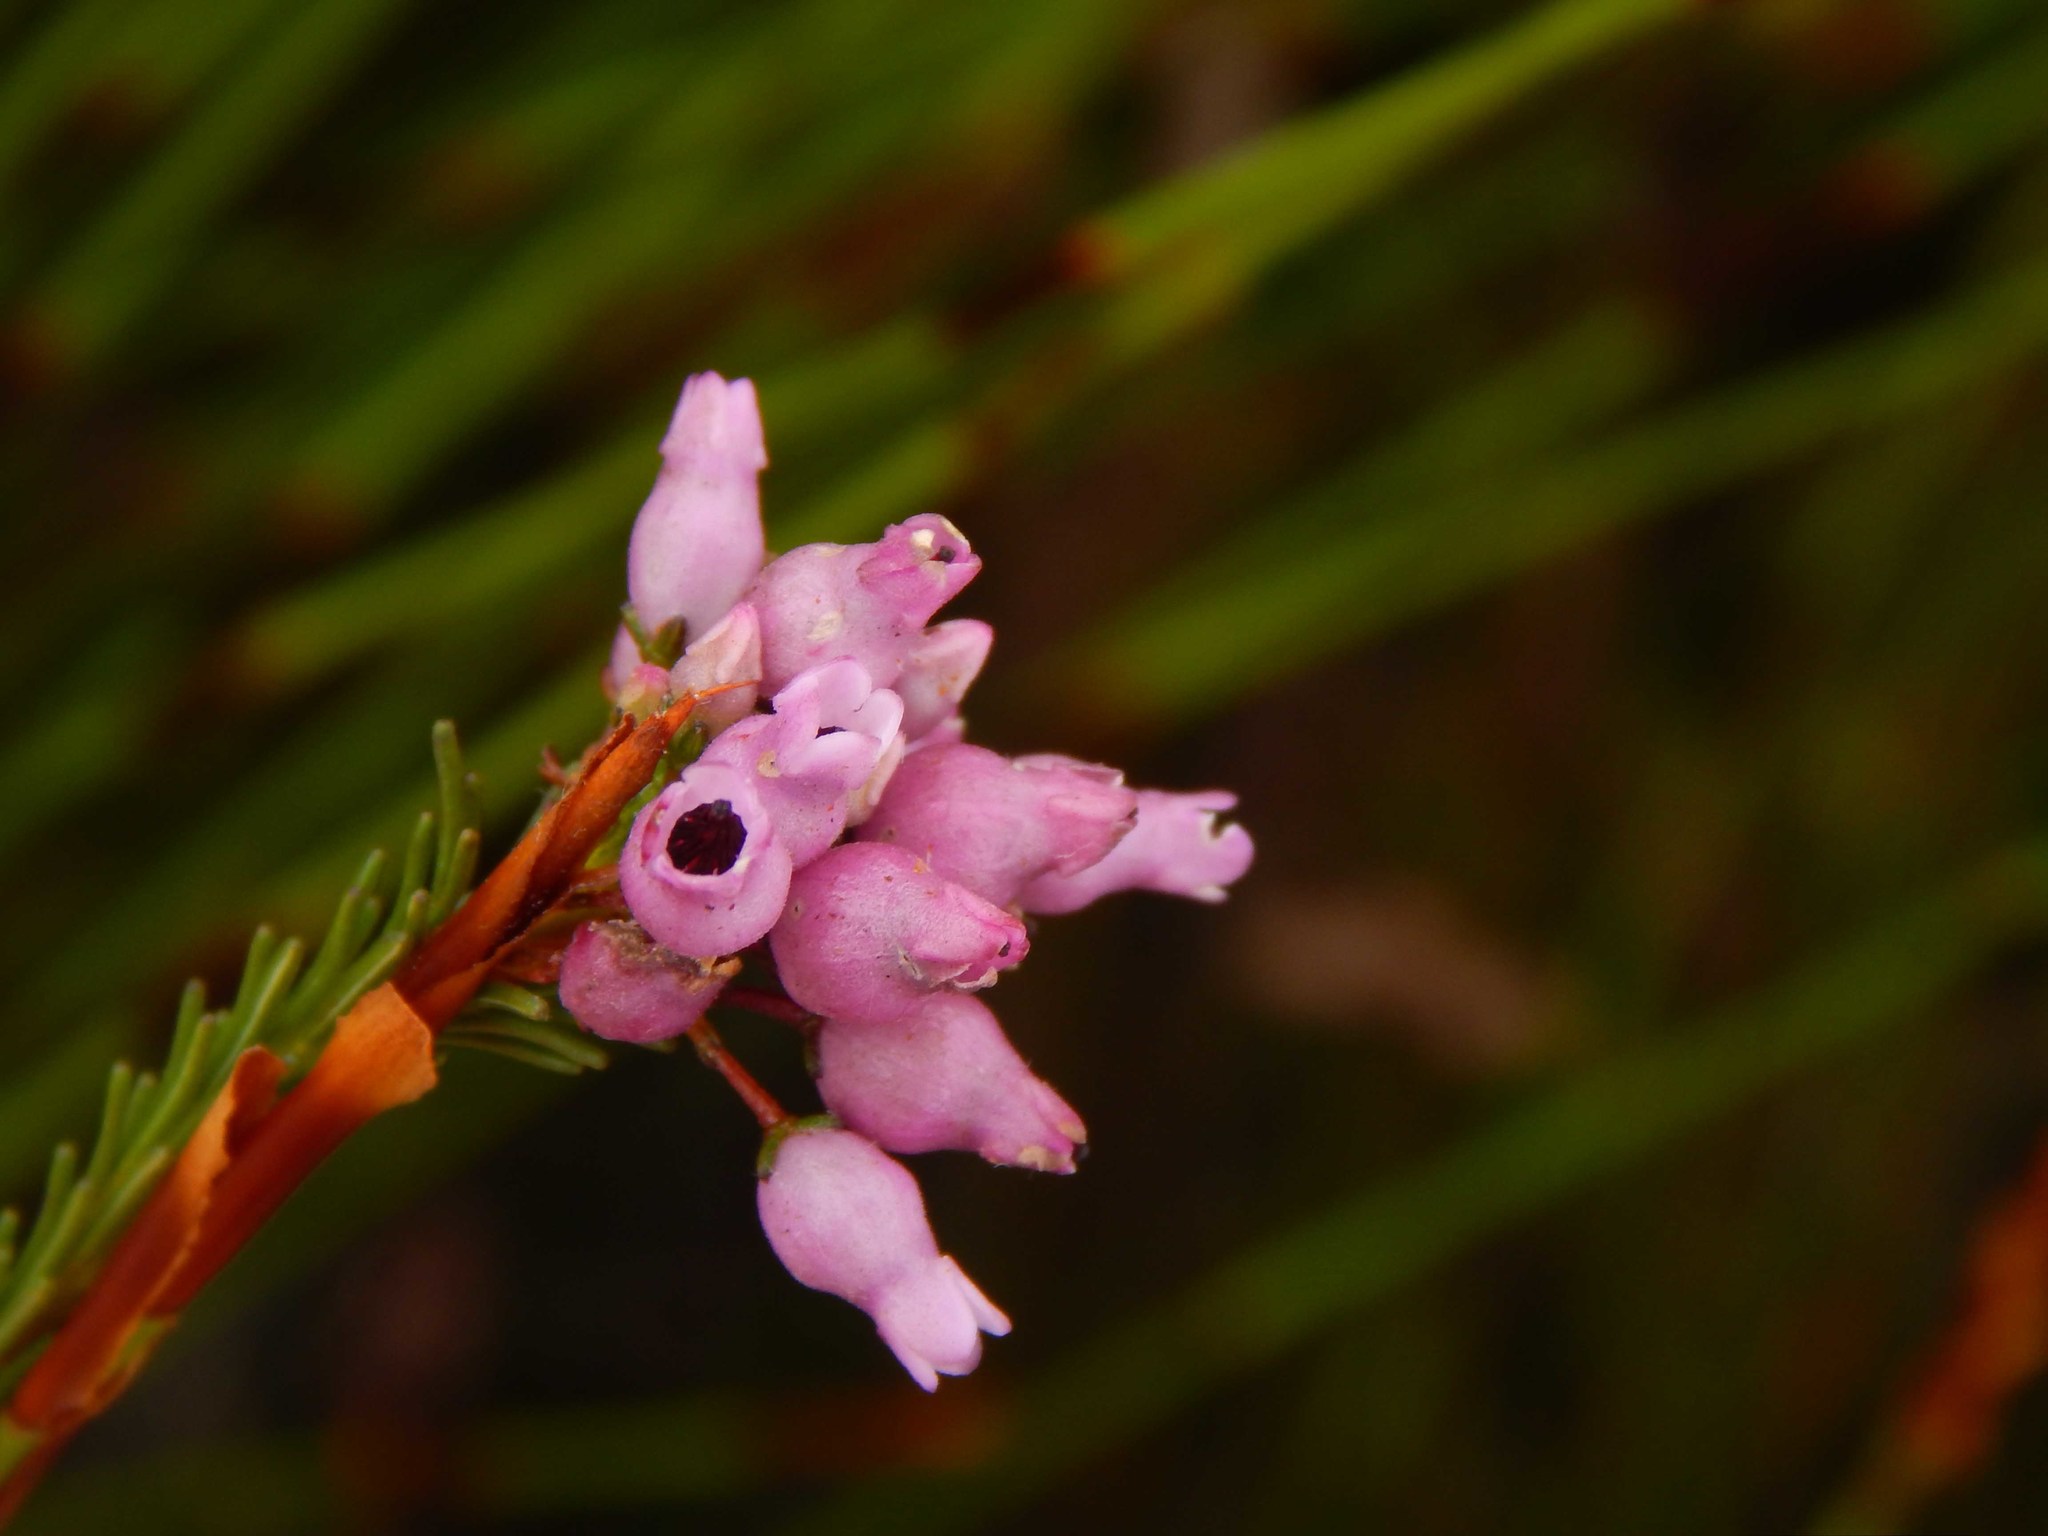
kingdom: Plantae
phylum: Tracheophyta
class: Magnoliopsida
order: Ericales
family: Ericaceae
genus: Erica
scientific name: Erica obliqua
